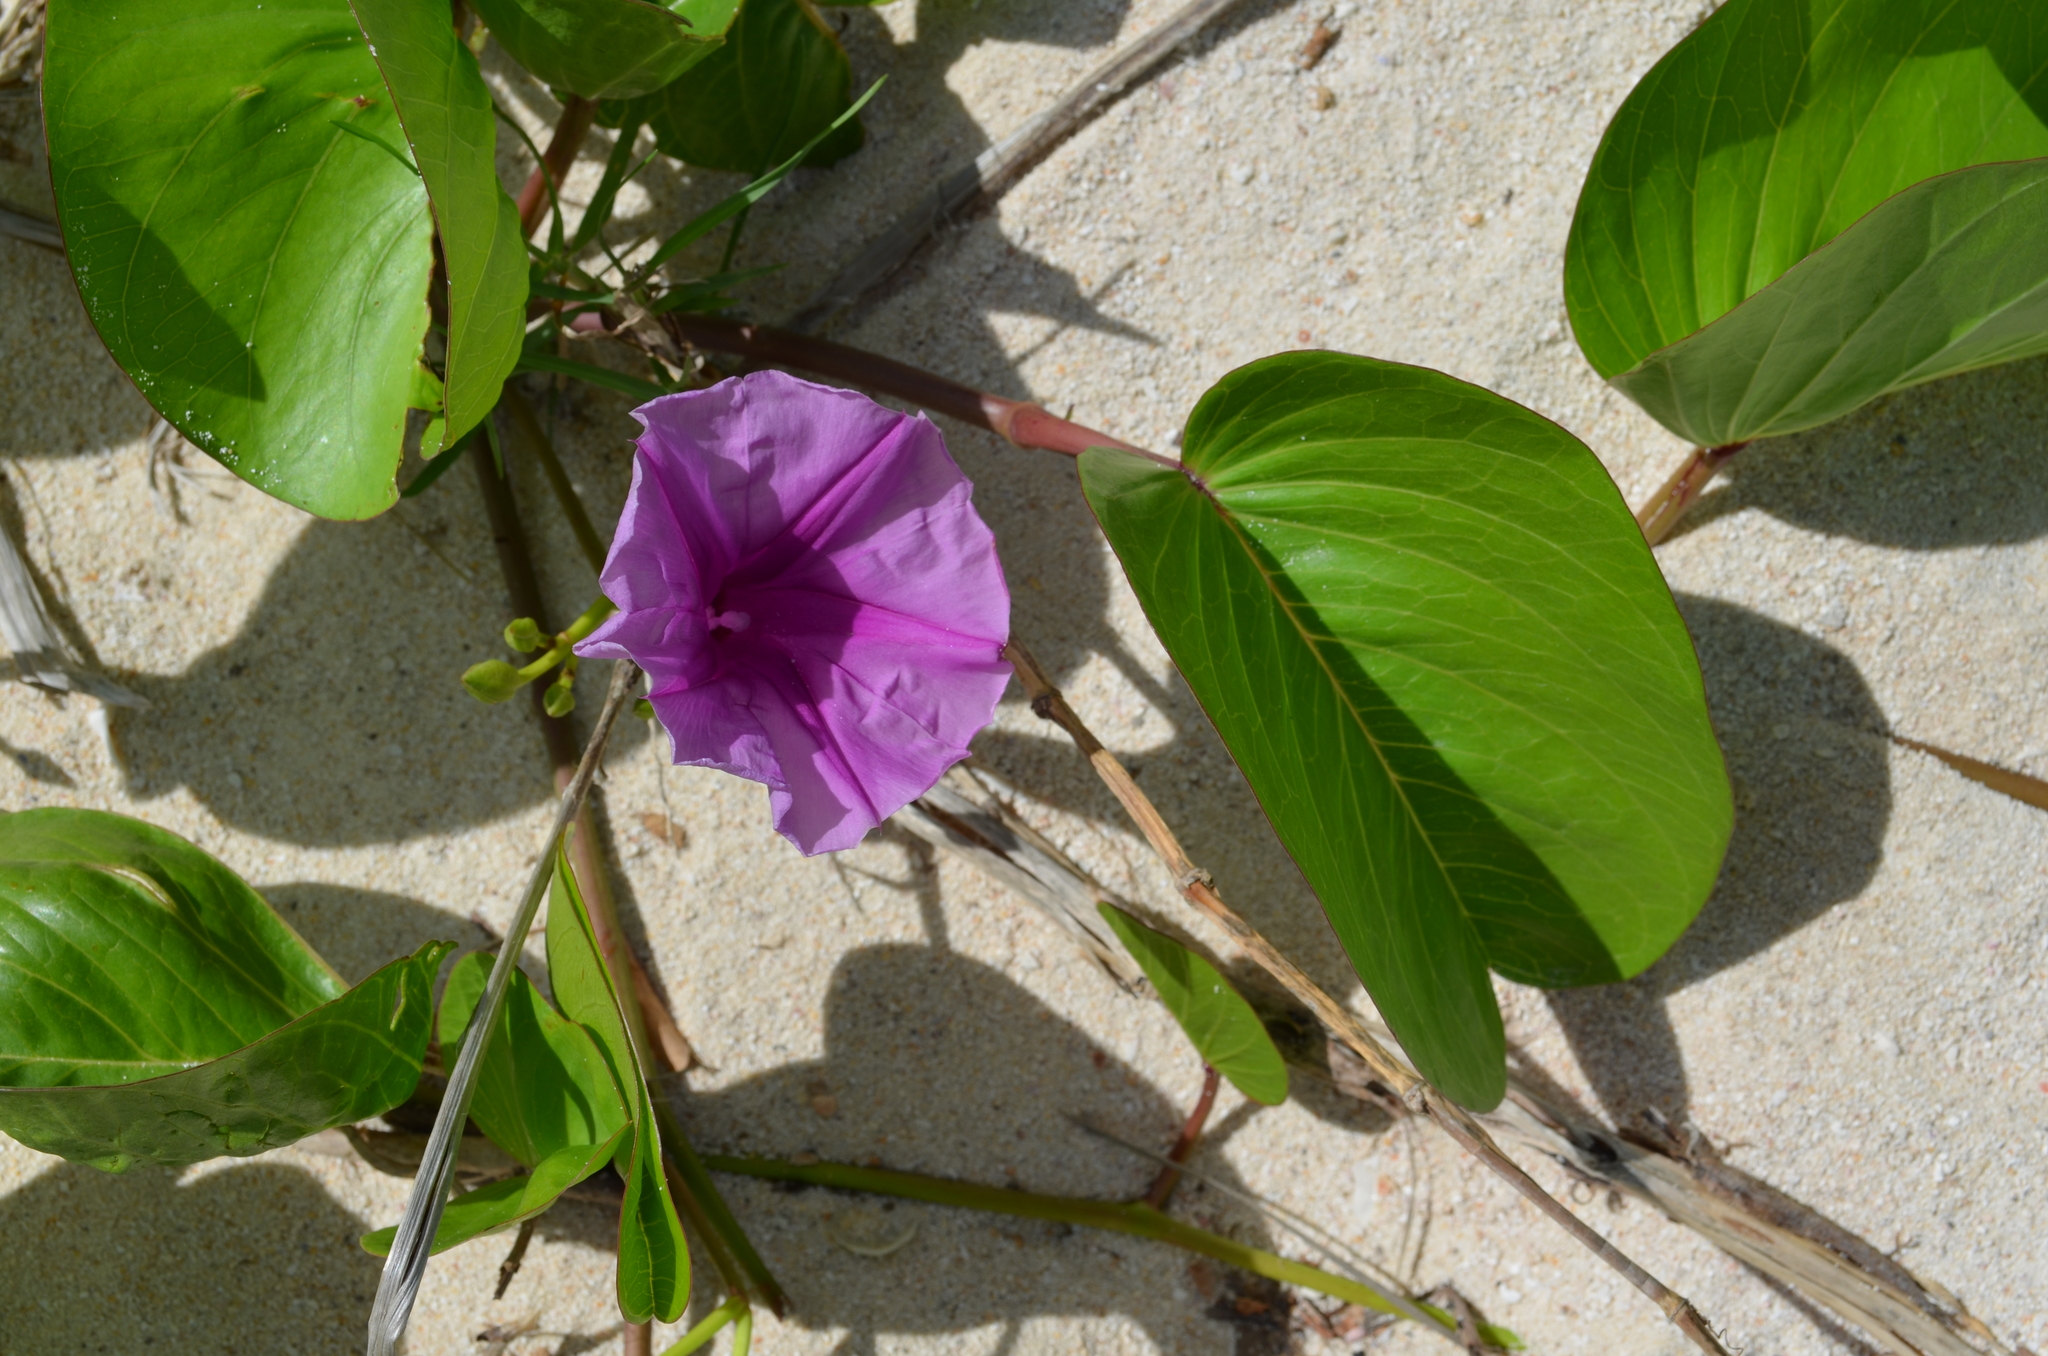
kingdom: Plantae
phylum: Tracheophyta
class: Magnoliopsida
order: Solanales
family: Convolvulaceae
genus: Ipomoea
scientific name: Ipomoea pes-caprae
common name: Beach morning glory
